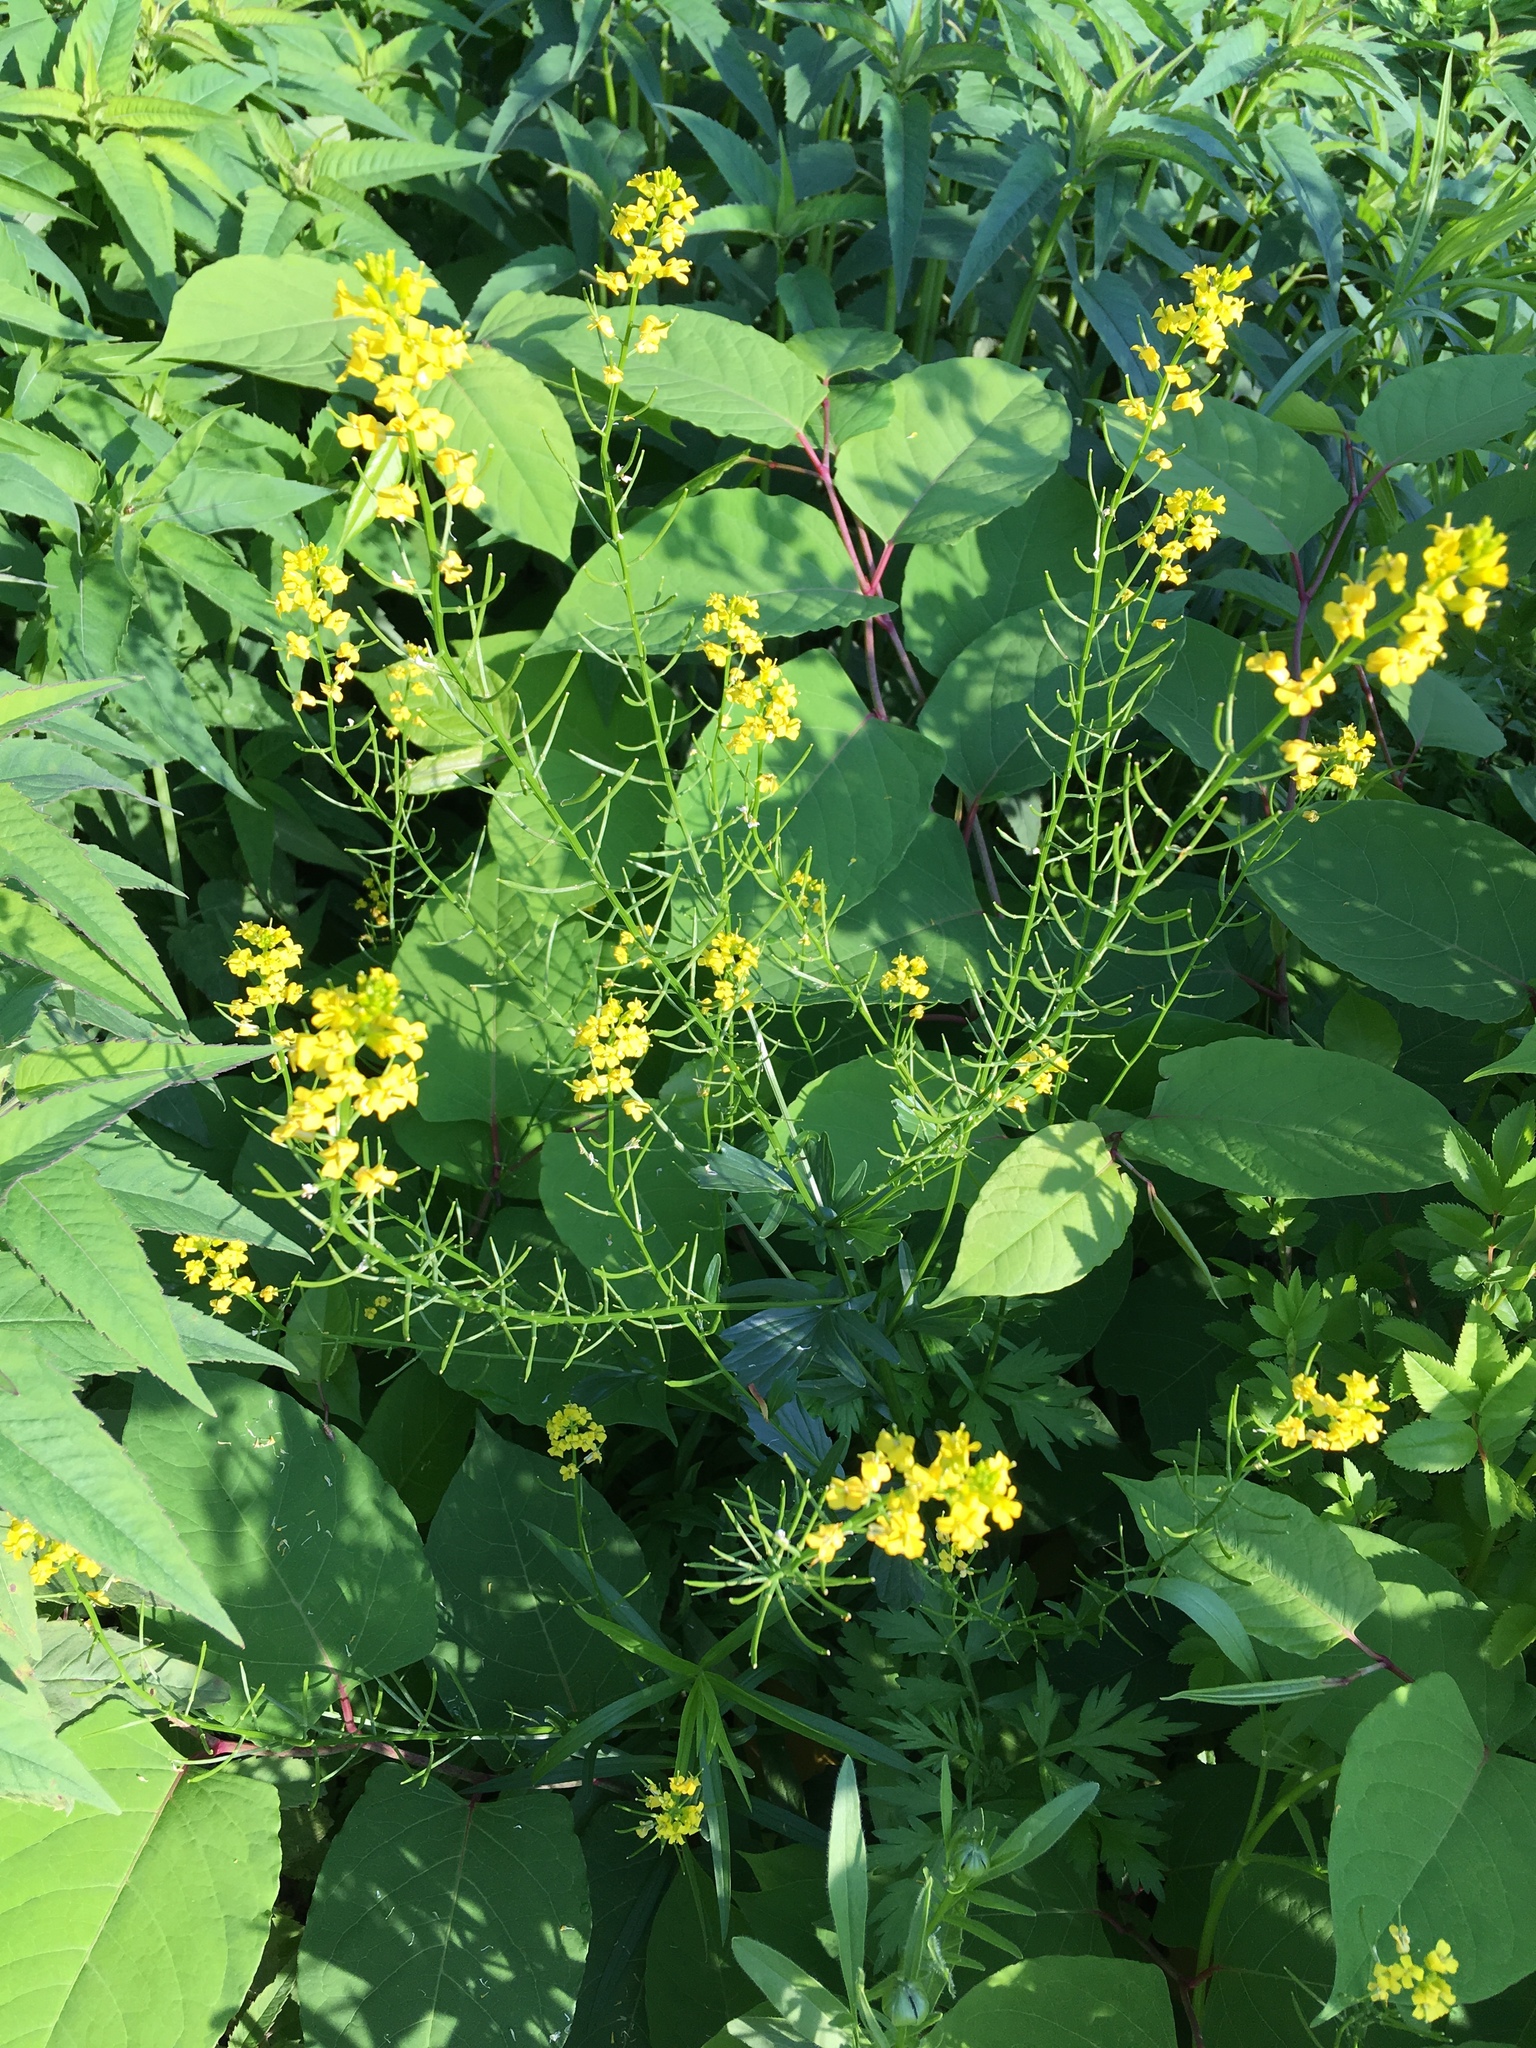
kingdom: Plantae
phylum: Tracheophyta
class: Magnoliopsida
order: Brassicales
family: Brassicaceae
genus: Barbarea
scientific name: Barbarea vulgaris
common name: Cressy-greens
